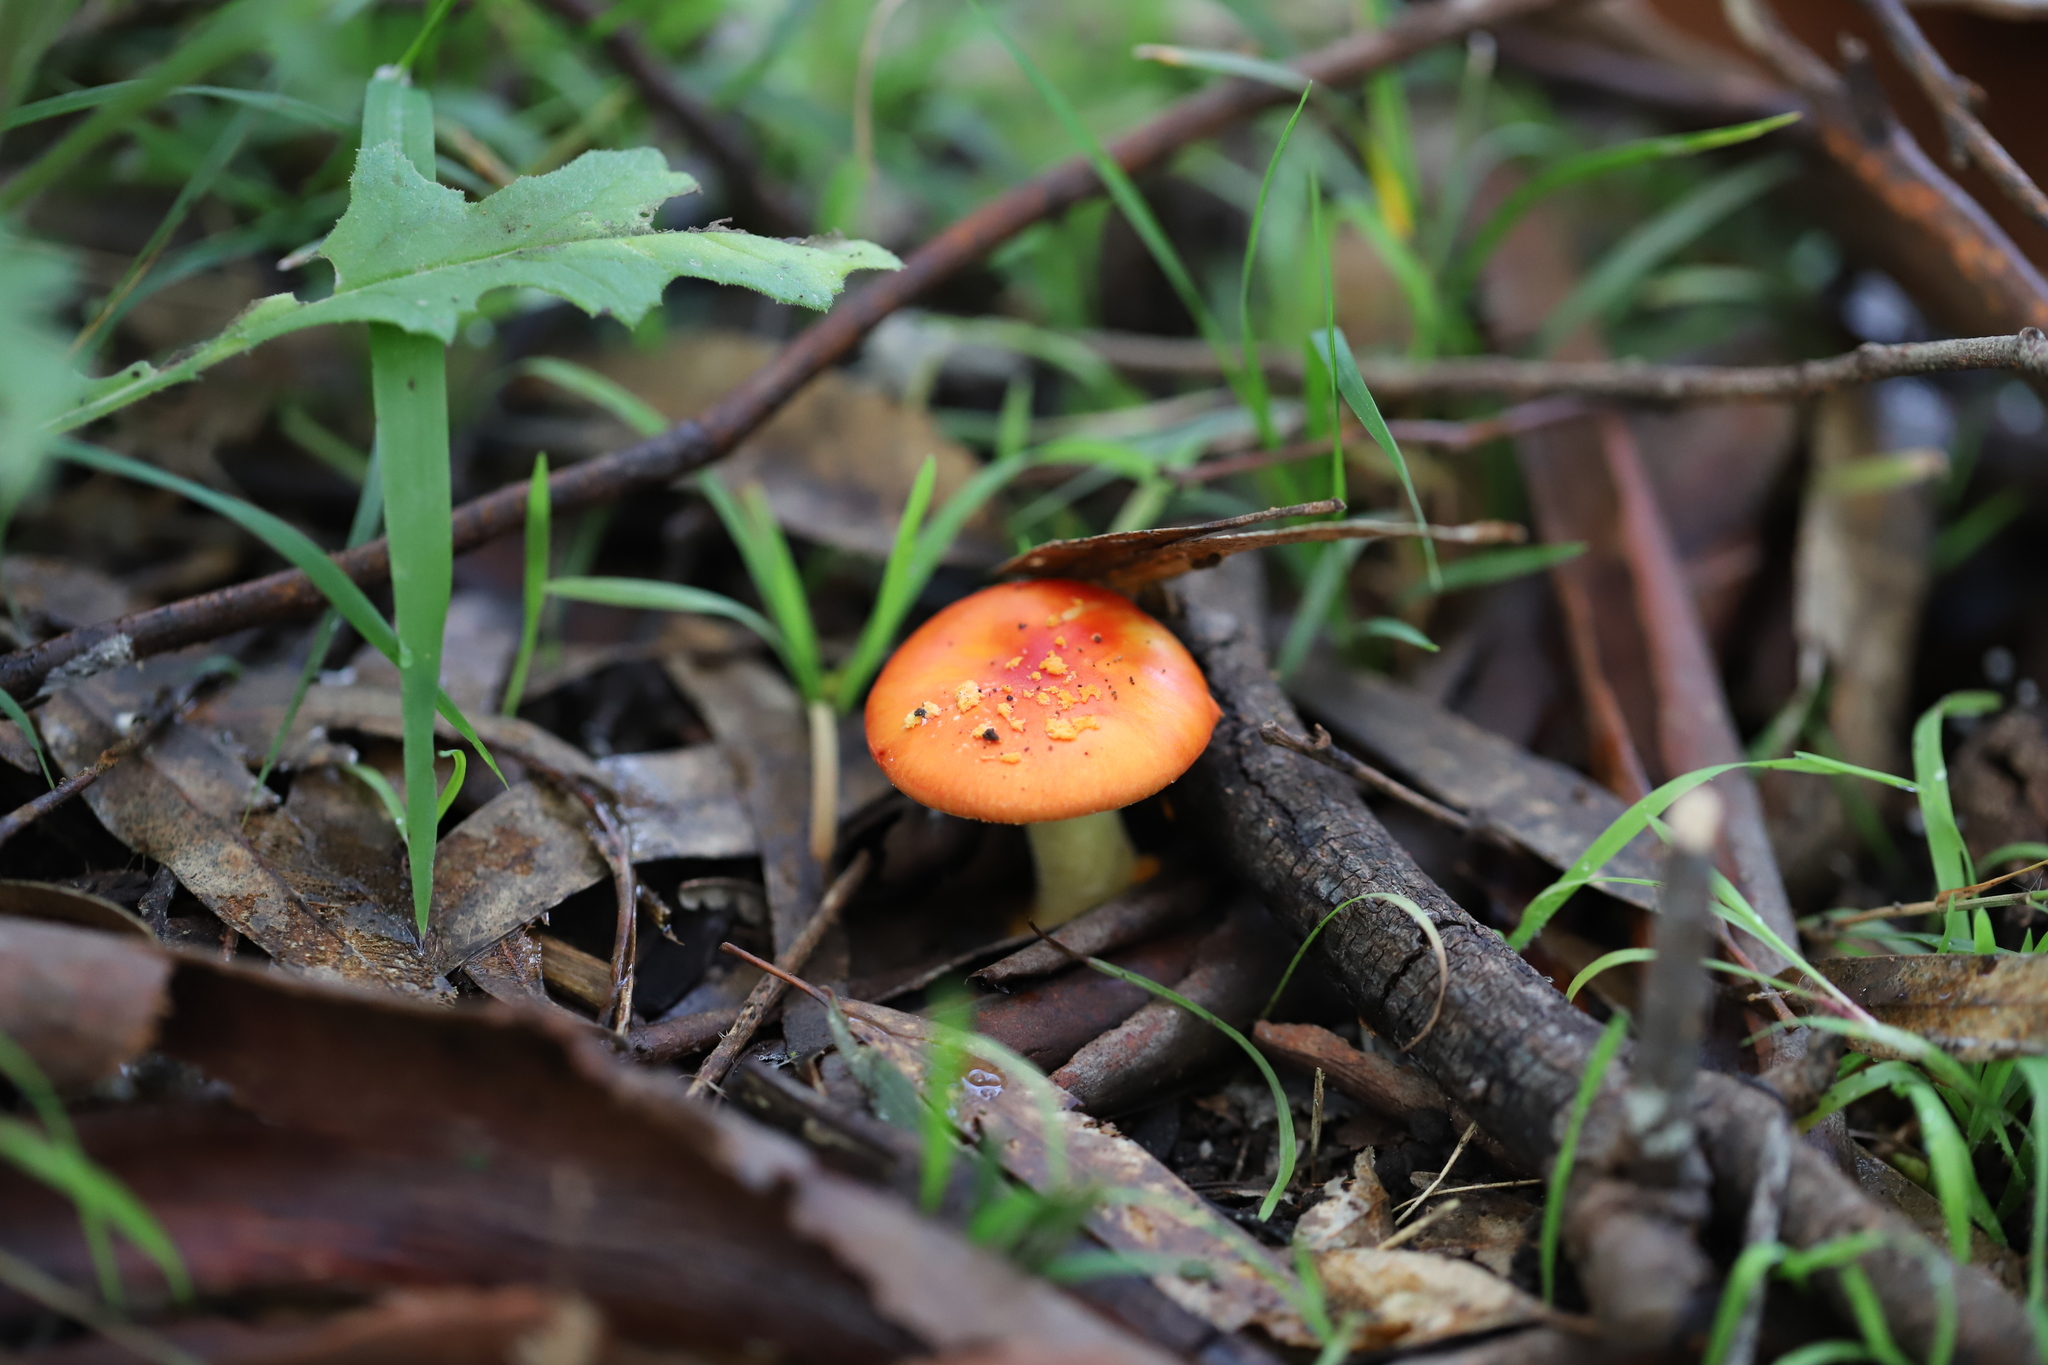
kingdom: Fungi
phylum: Basidiomycota
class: Agaricomycetes
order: Agaricales
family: Amanitaceae
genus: Amanita
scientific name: Amanita xanthocephala
